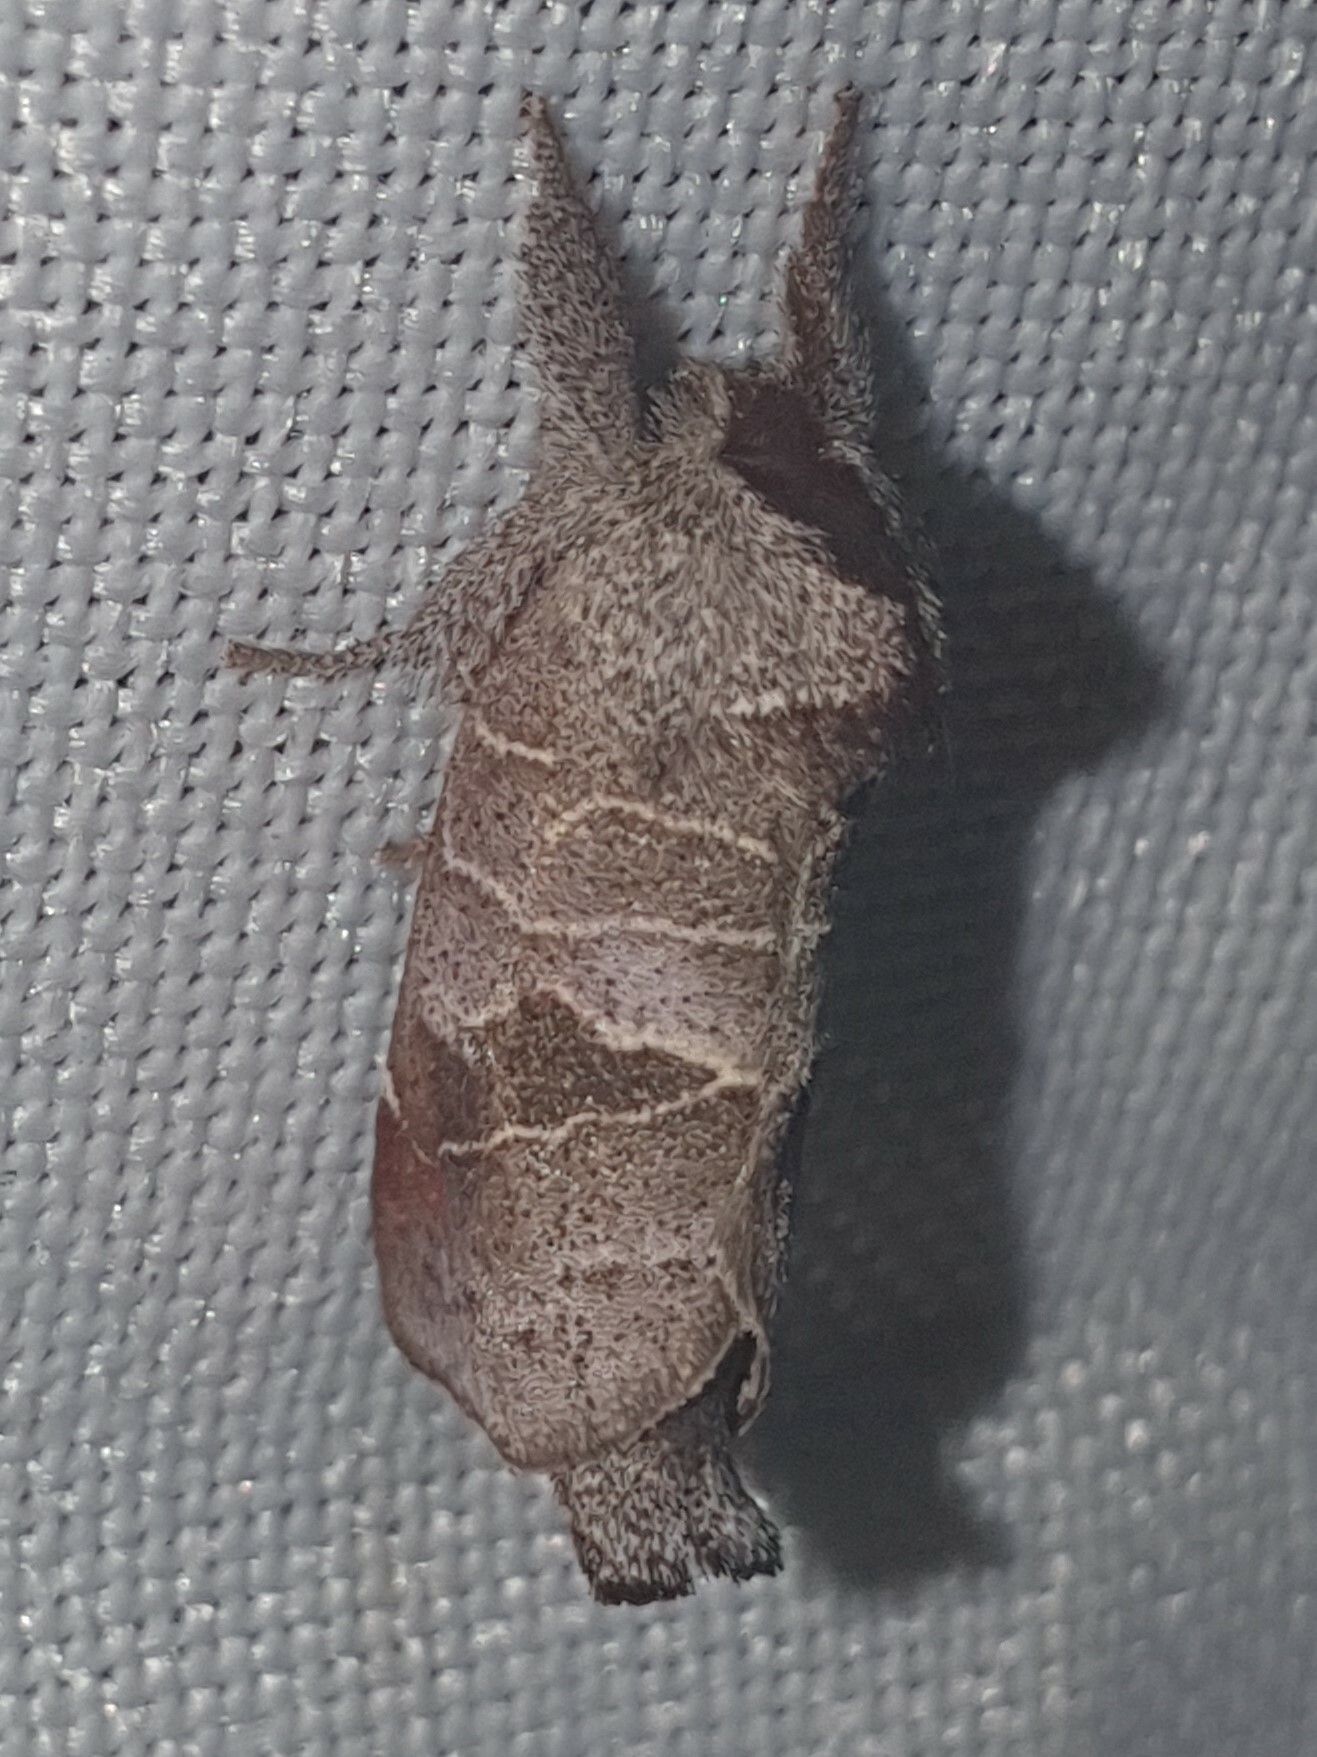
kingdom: Animalia
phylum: Arthropoda
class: Insecta
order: Lepidoptera
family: Notodontidae
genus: Clostera
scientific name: Clostera pigra
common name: Small chocolate-tip
